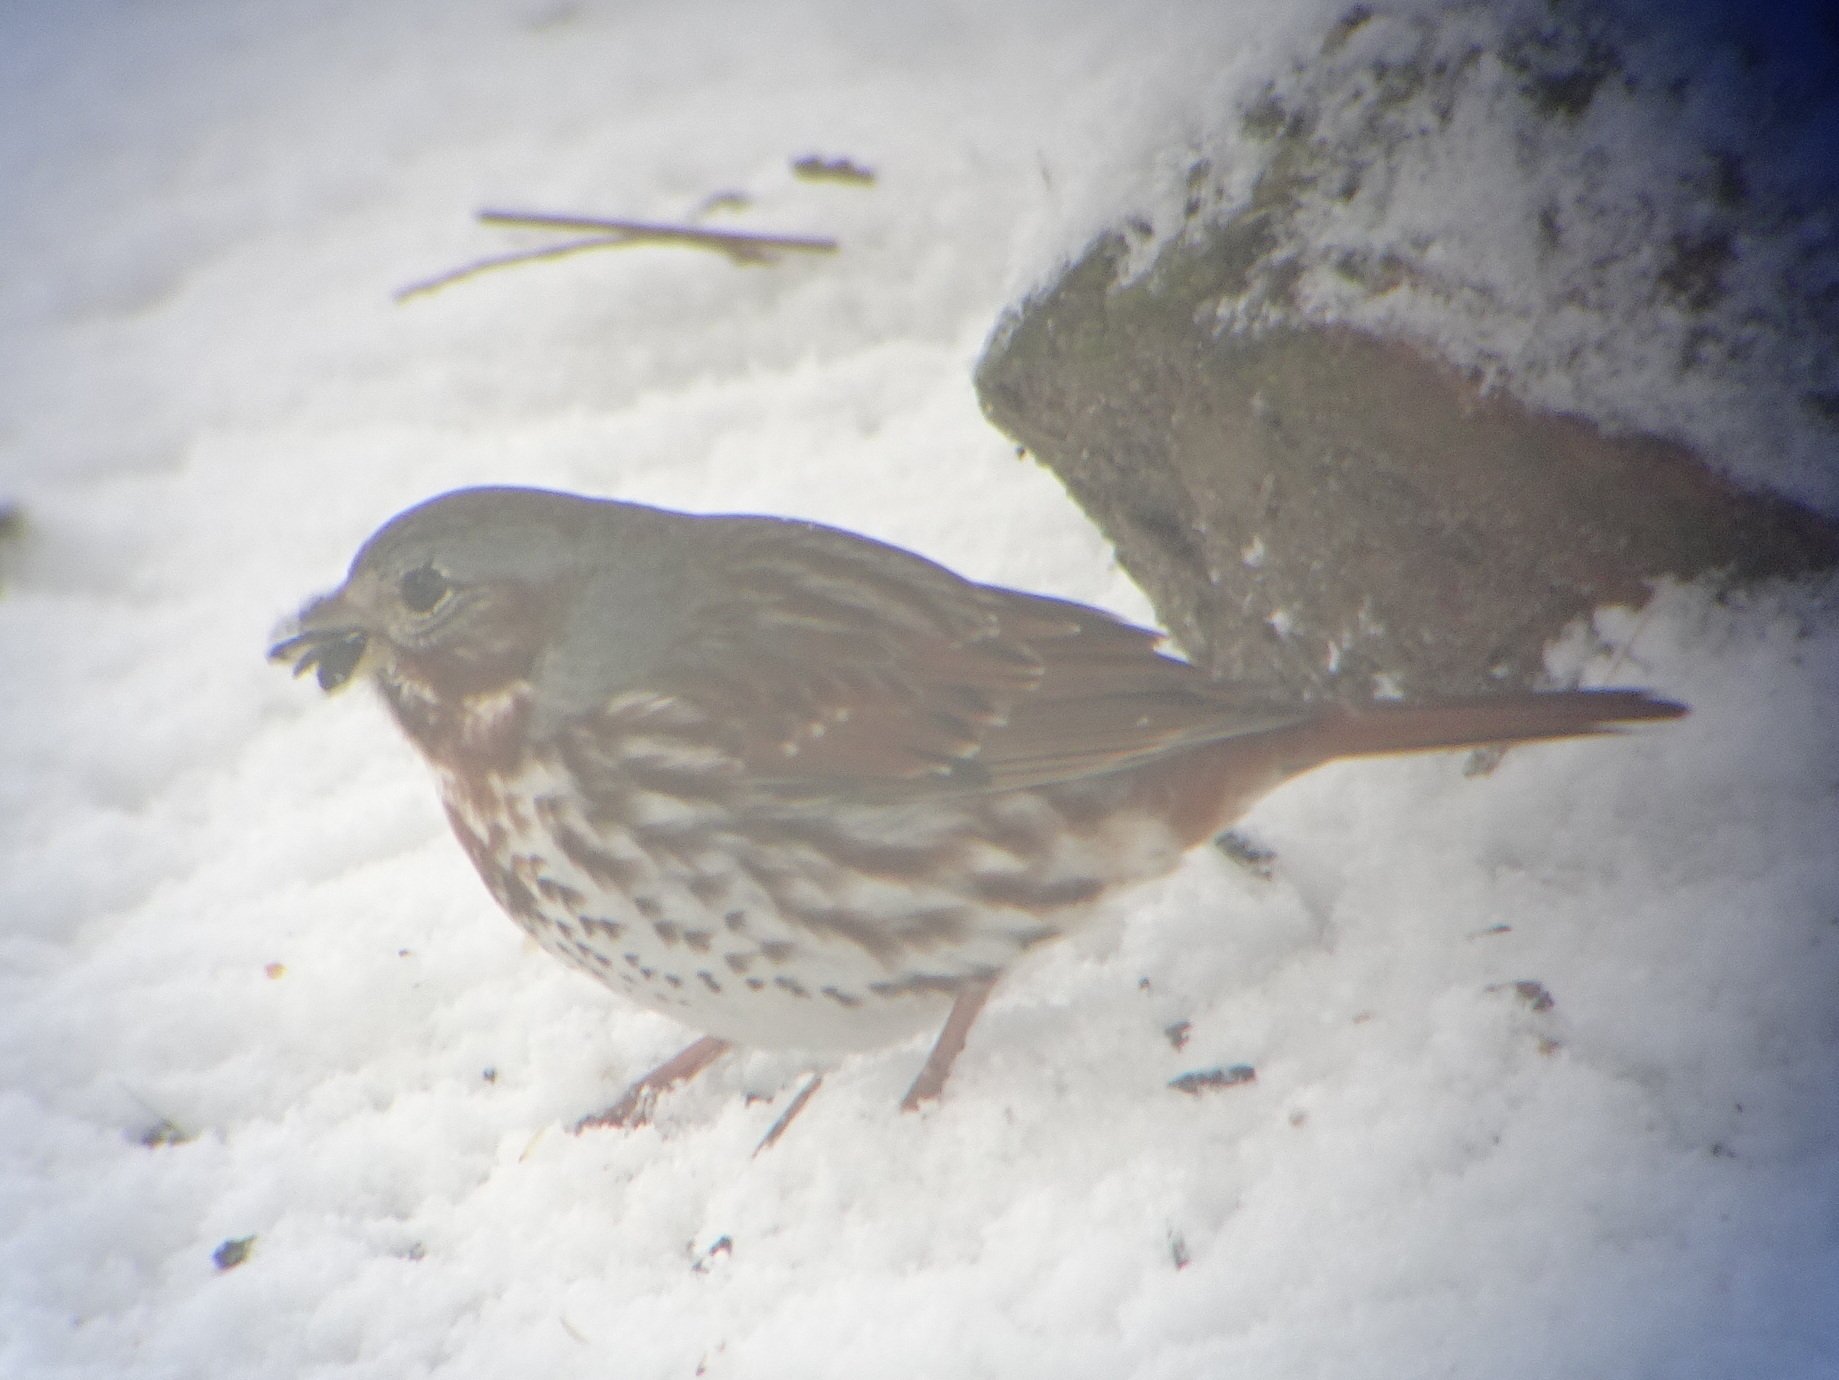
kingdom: Animalia
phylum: Chordata
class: Aves
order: Passeriformes
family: Passerellidae
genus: Passerella
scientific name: Passerella iliaca
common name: Fox sparrow
